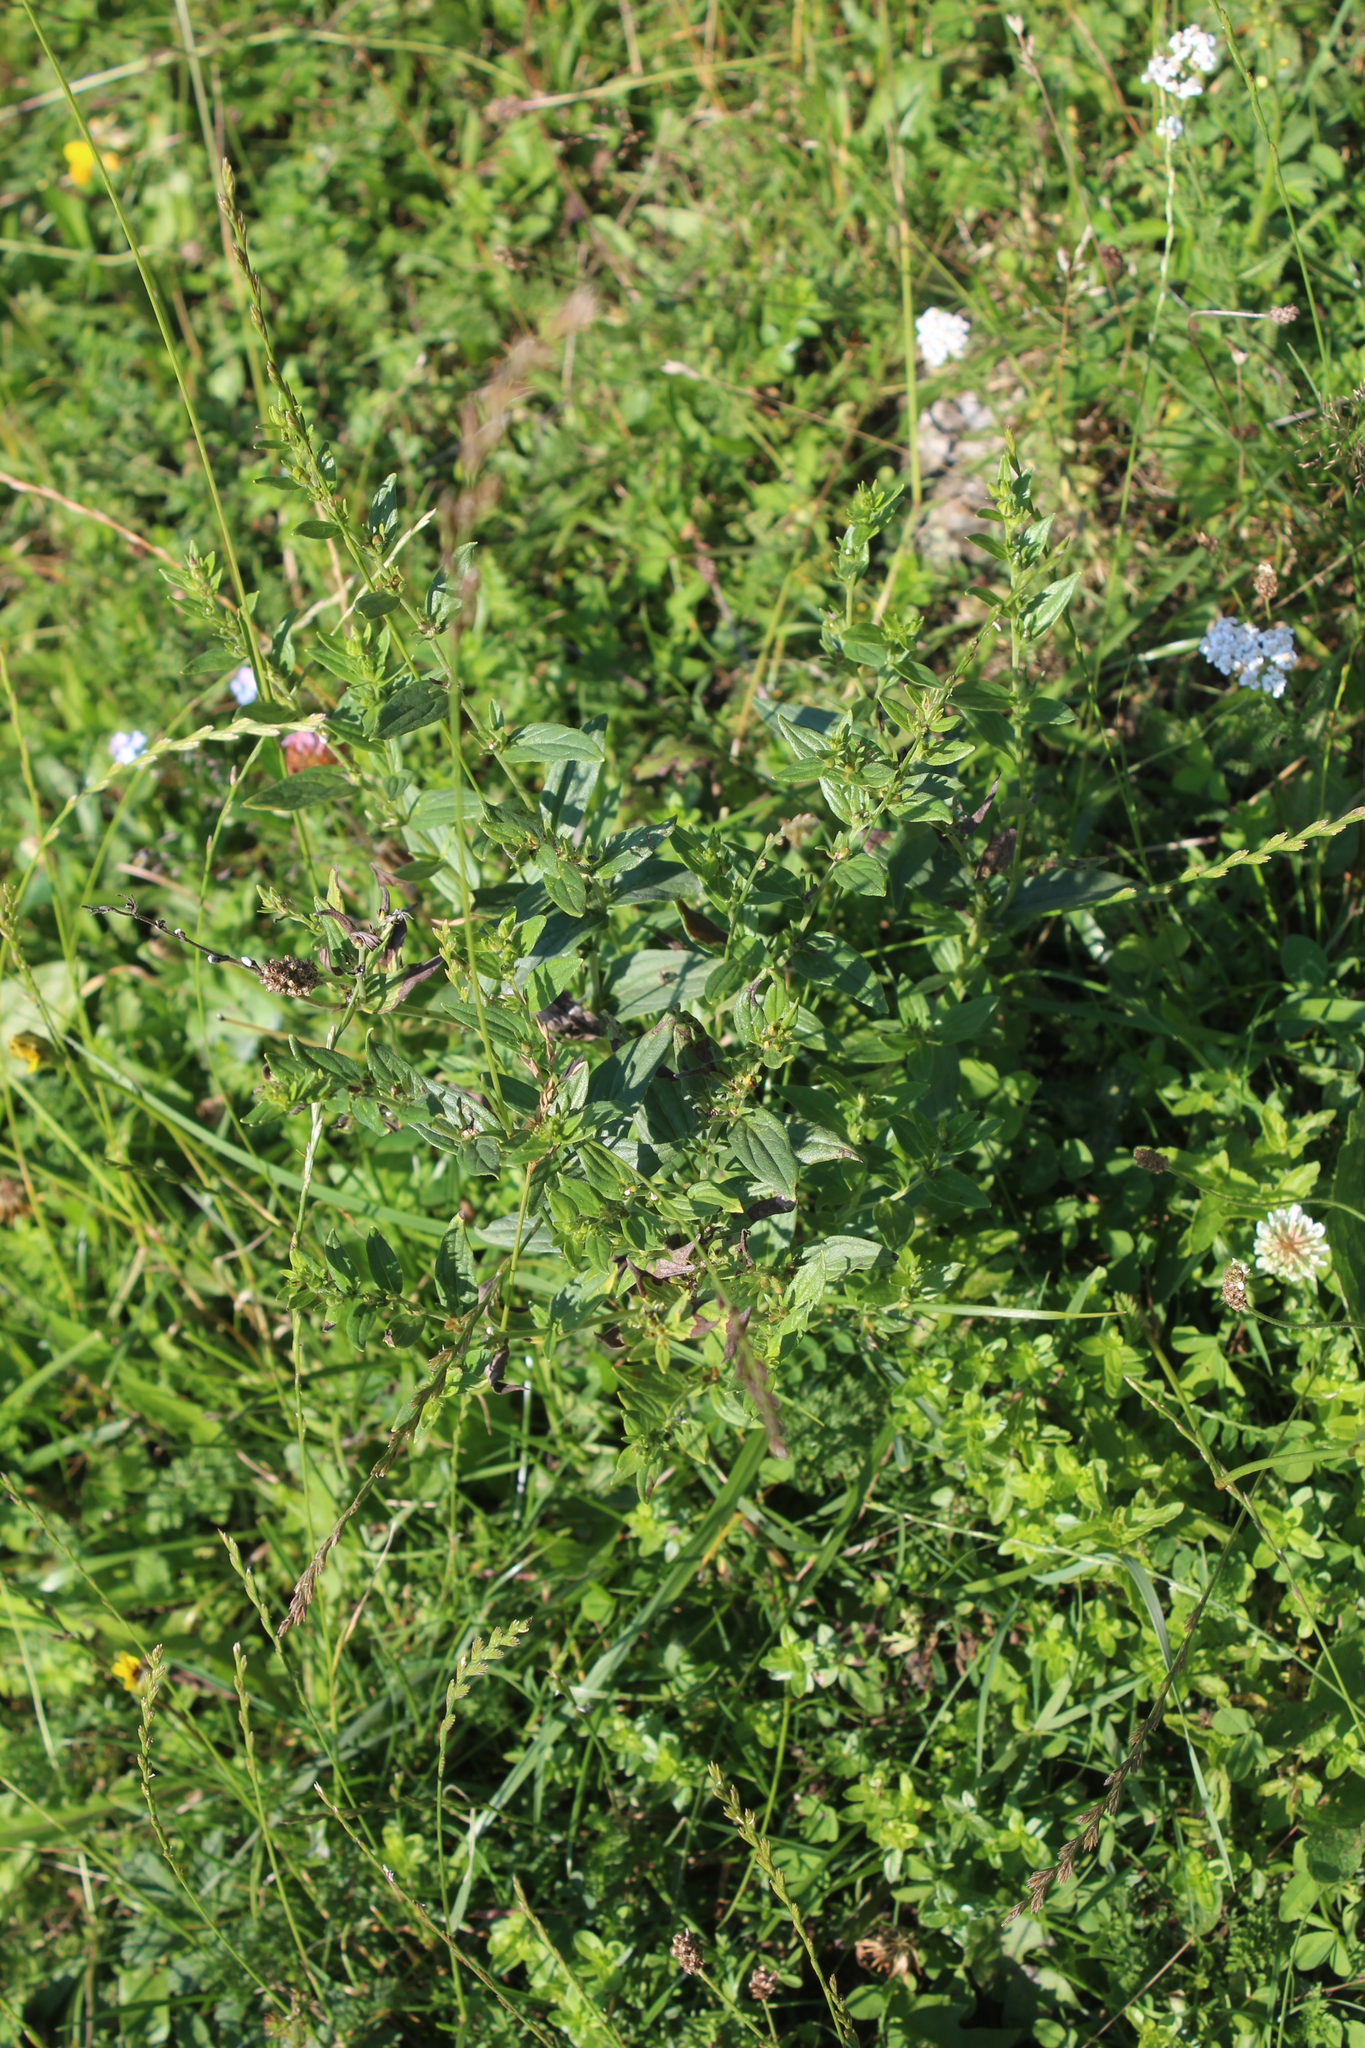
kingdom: Plantae
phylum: Tracheophyta
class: Magnoliopsida
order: Boraginales
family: Boraginaceae
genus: Lithospermum
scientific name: Lithospermum officinale
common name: Common gromwell
